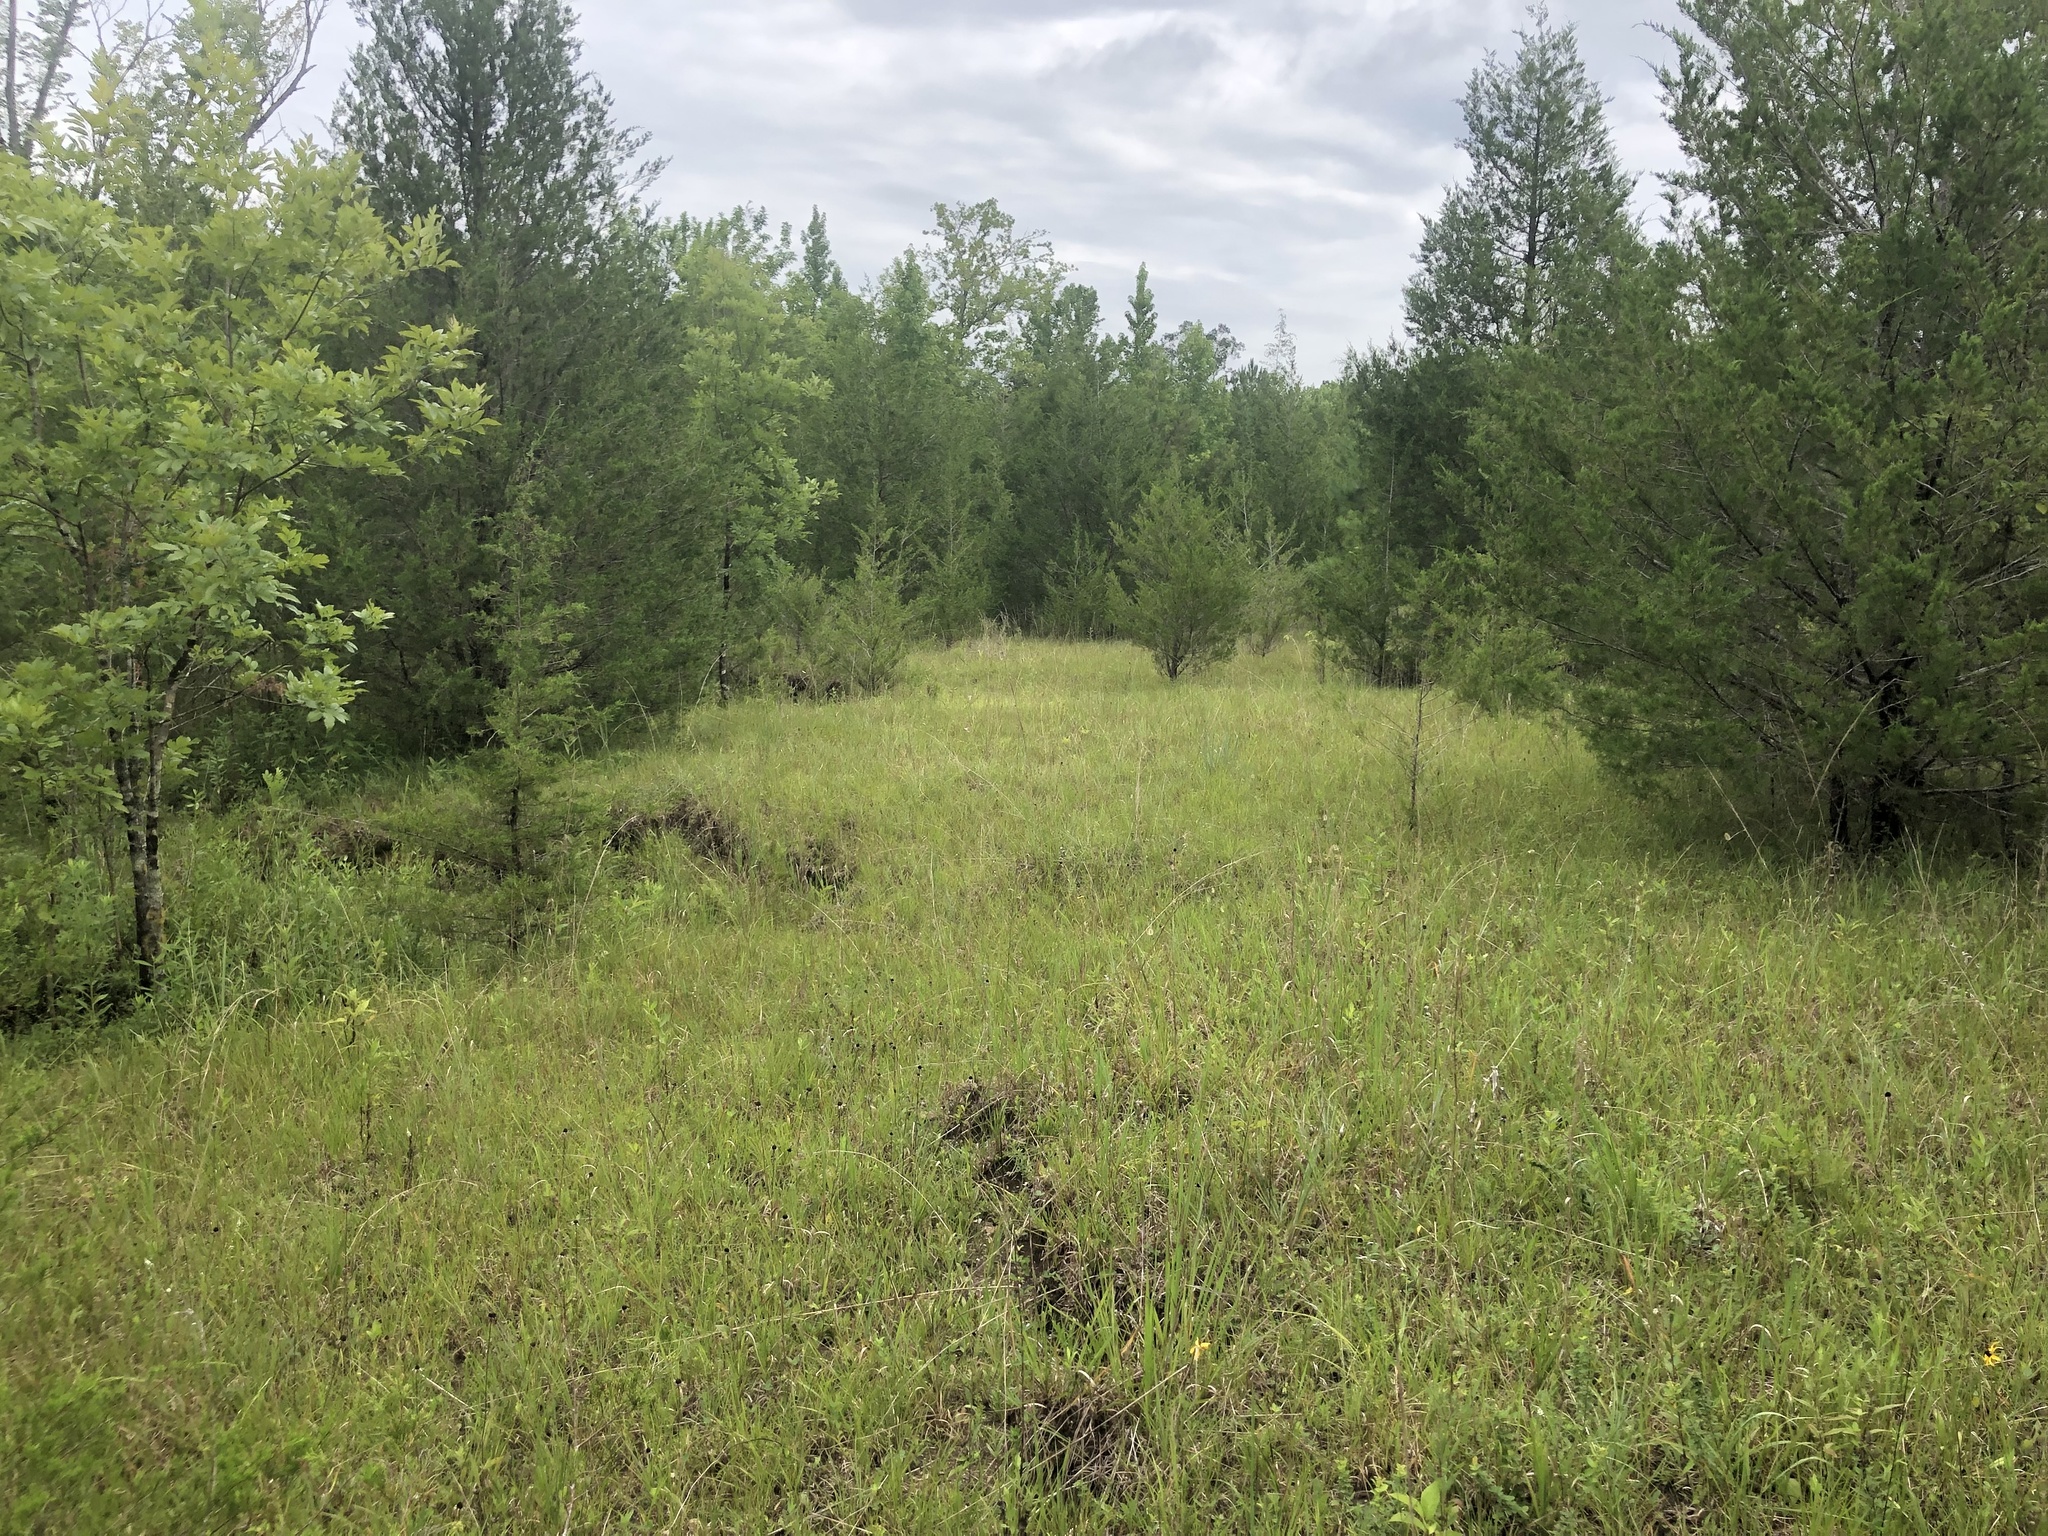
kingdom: Plantae
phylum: Tracheophyta
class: Pinopsida
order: Pinales
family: Cupressaceae
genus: Juniperus
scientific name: Juniperus virginiana
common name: Red juniper
